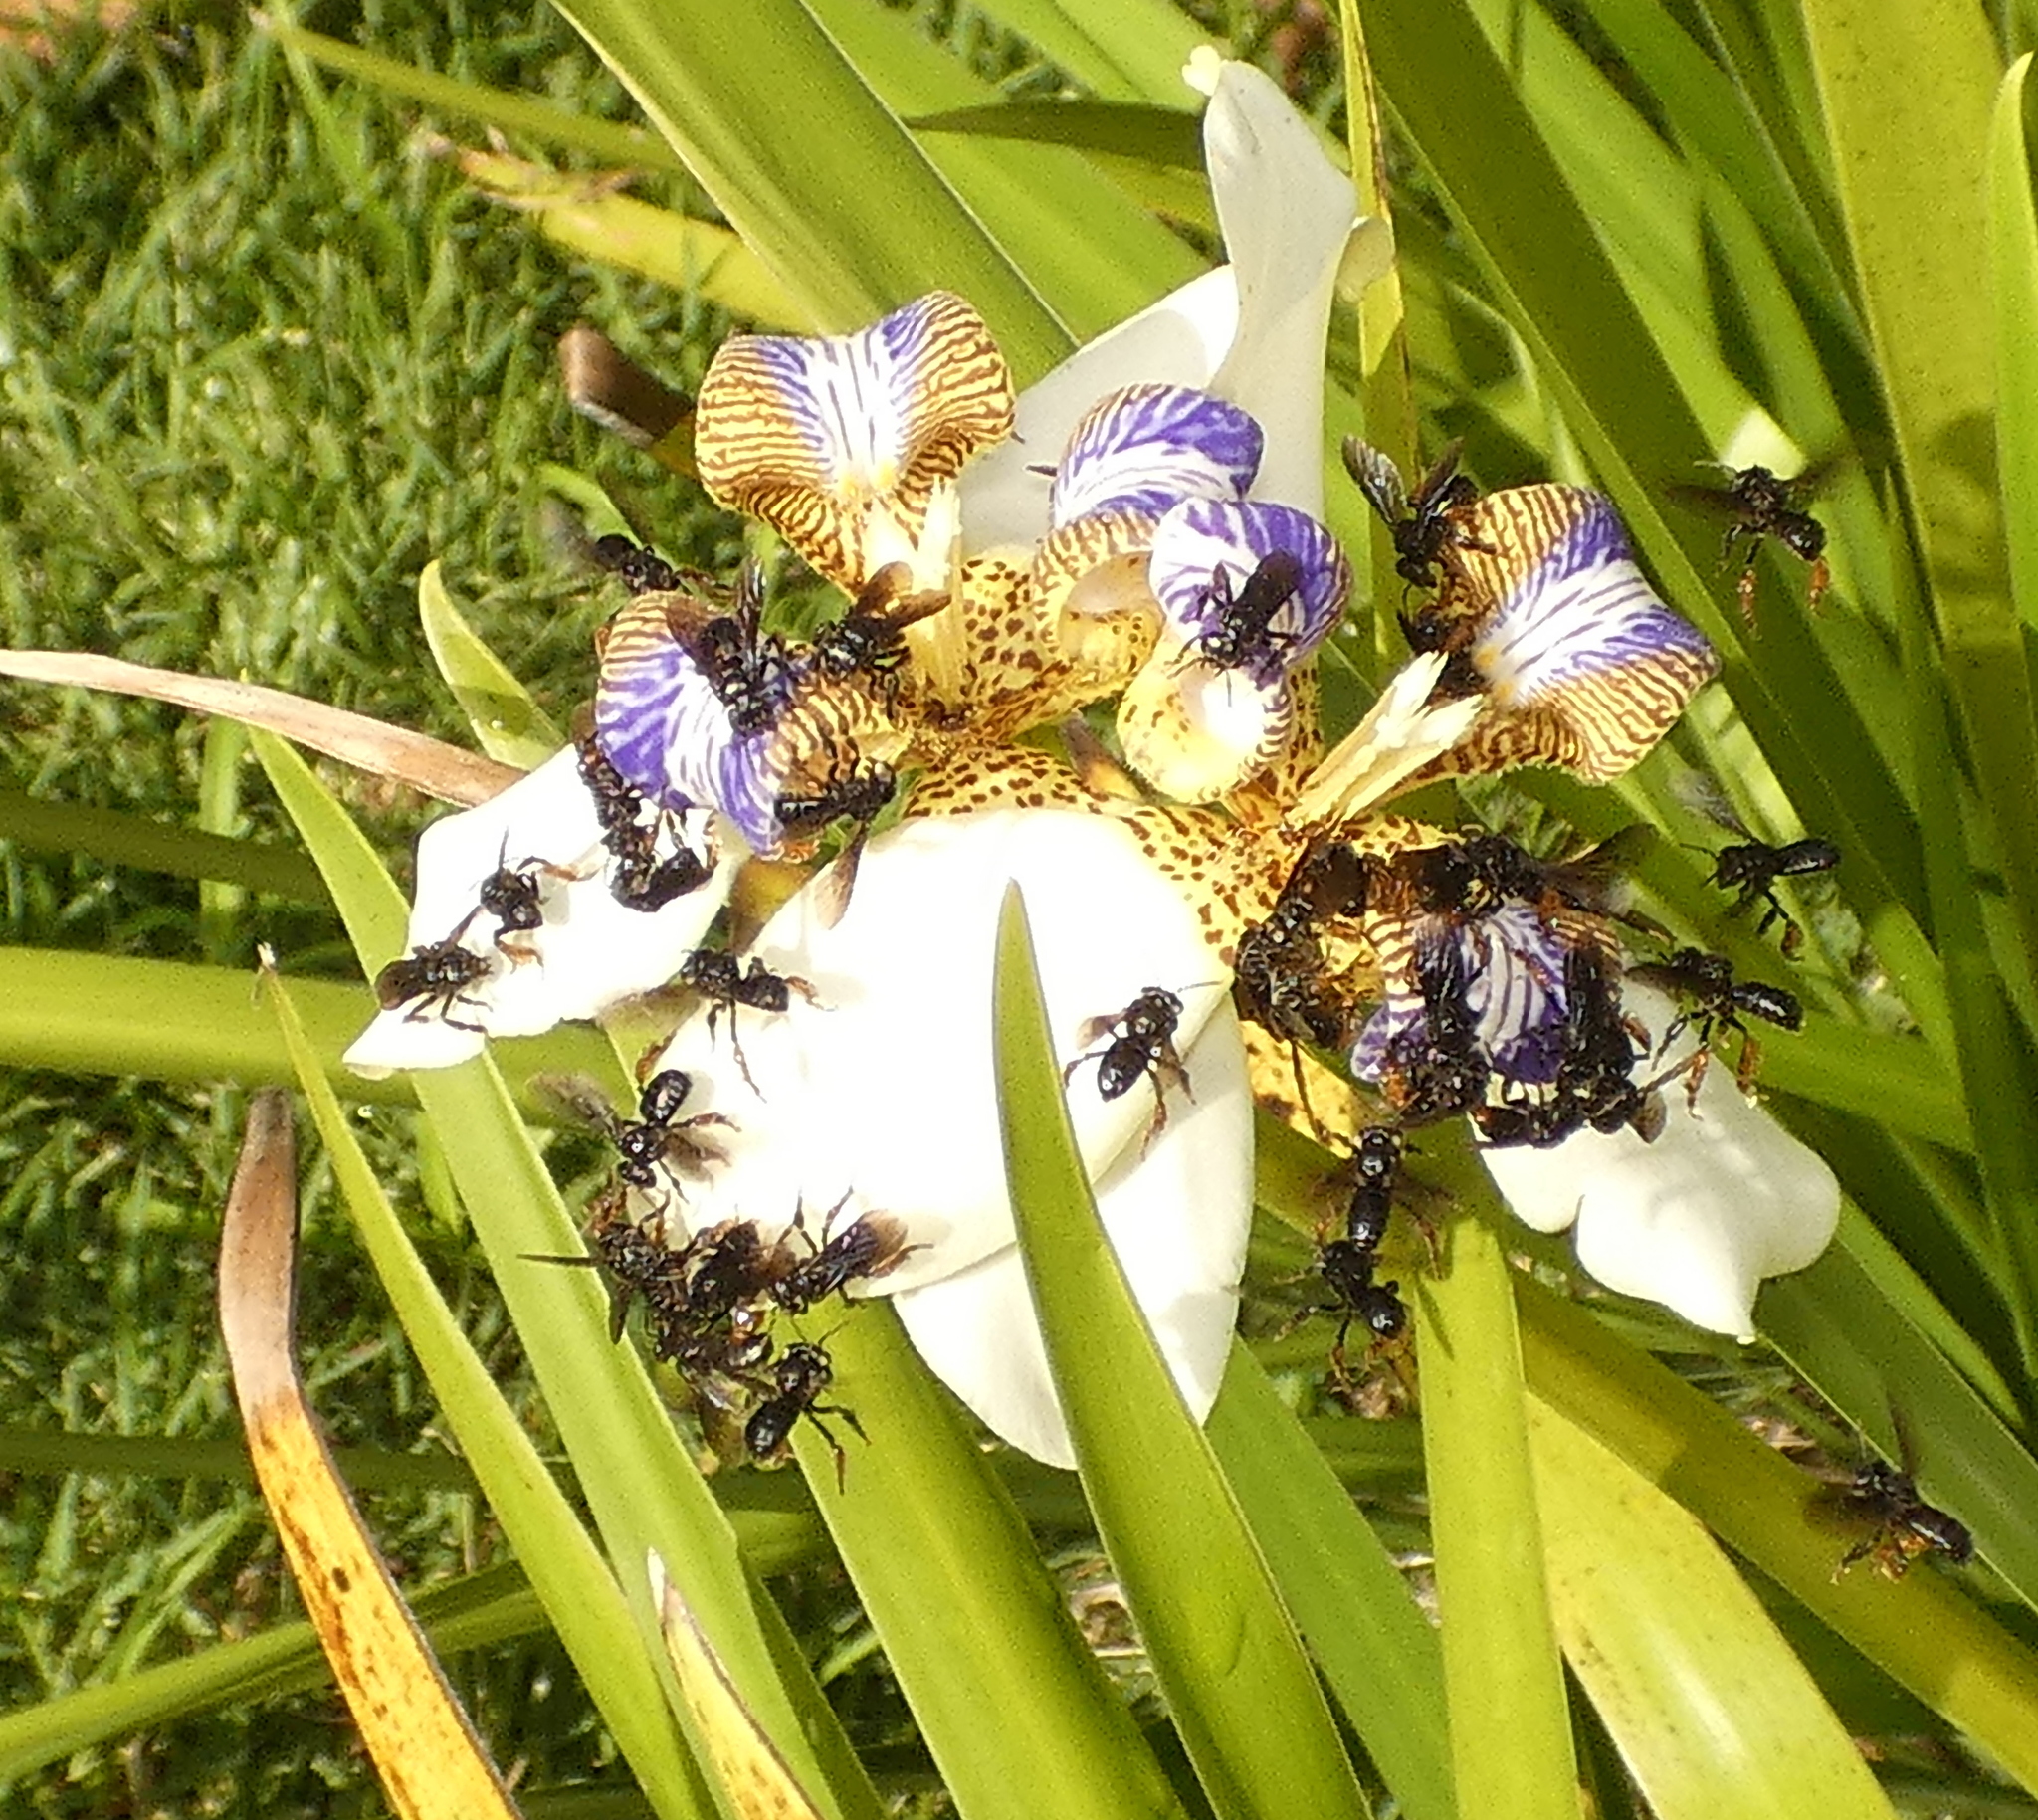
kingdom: Animalia
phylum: Arthropoda
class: Insecta
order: Hymenoptera
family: Apidae
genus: Trigona
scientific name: Trigona spinipes
